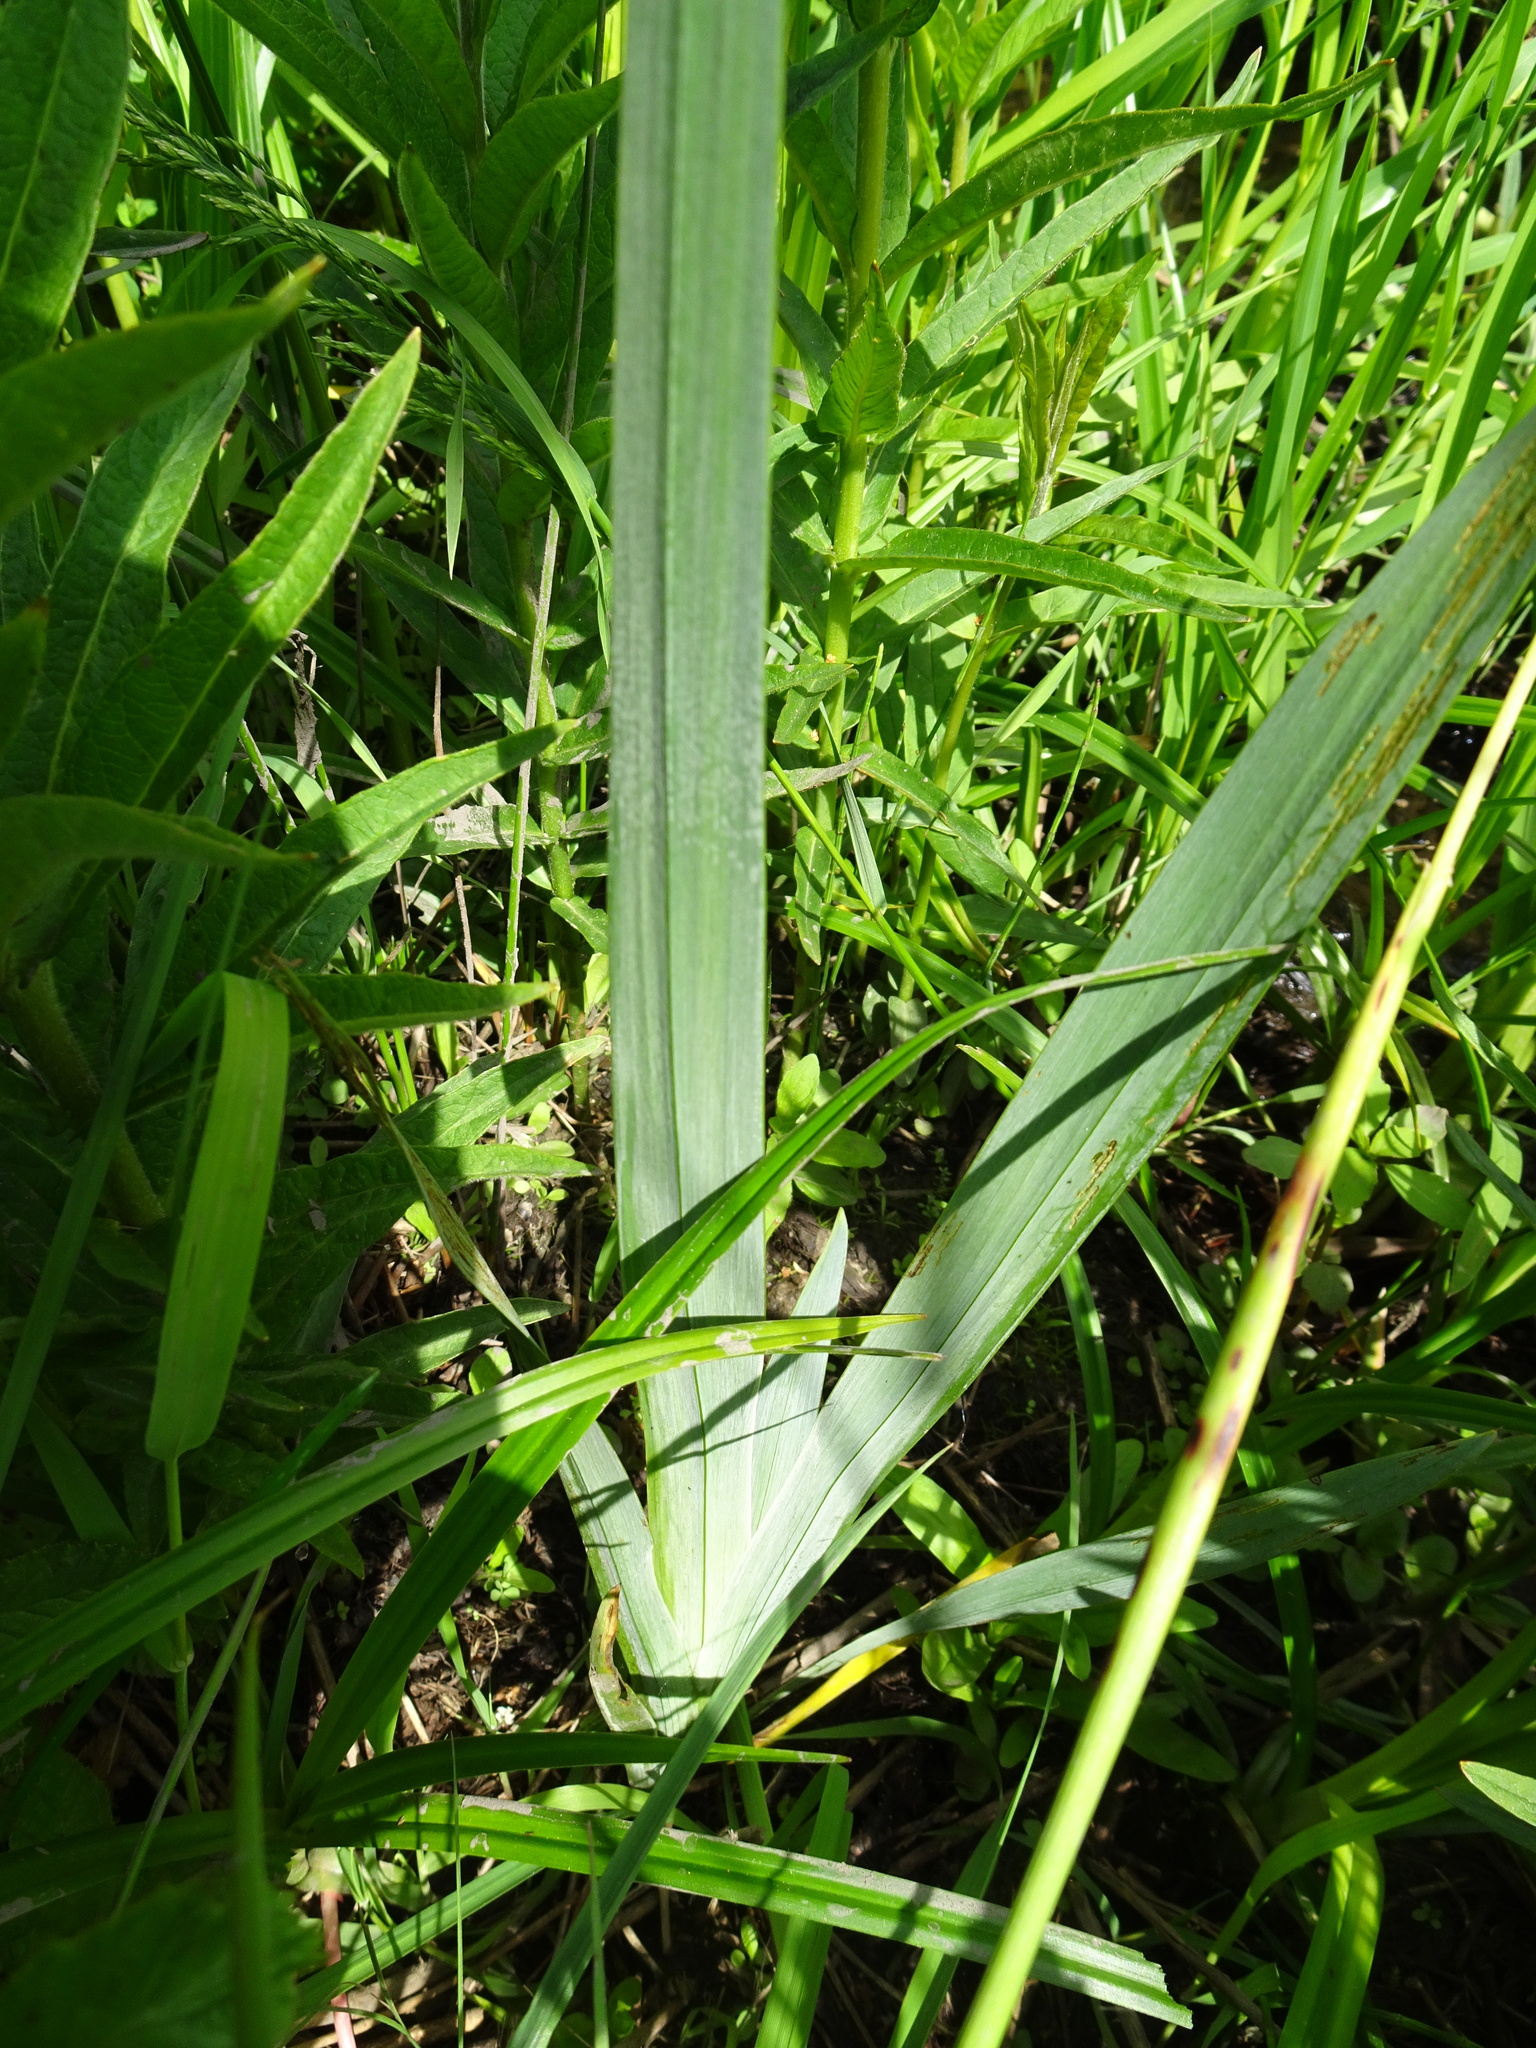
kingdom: Plantae
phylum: Tracheophyta
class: Liliopsida
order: Asparagales
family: Iridaceae
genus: Iris
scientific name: Iris pseudacorus
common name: Yellow flag
